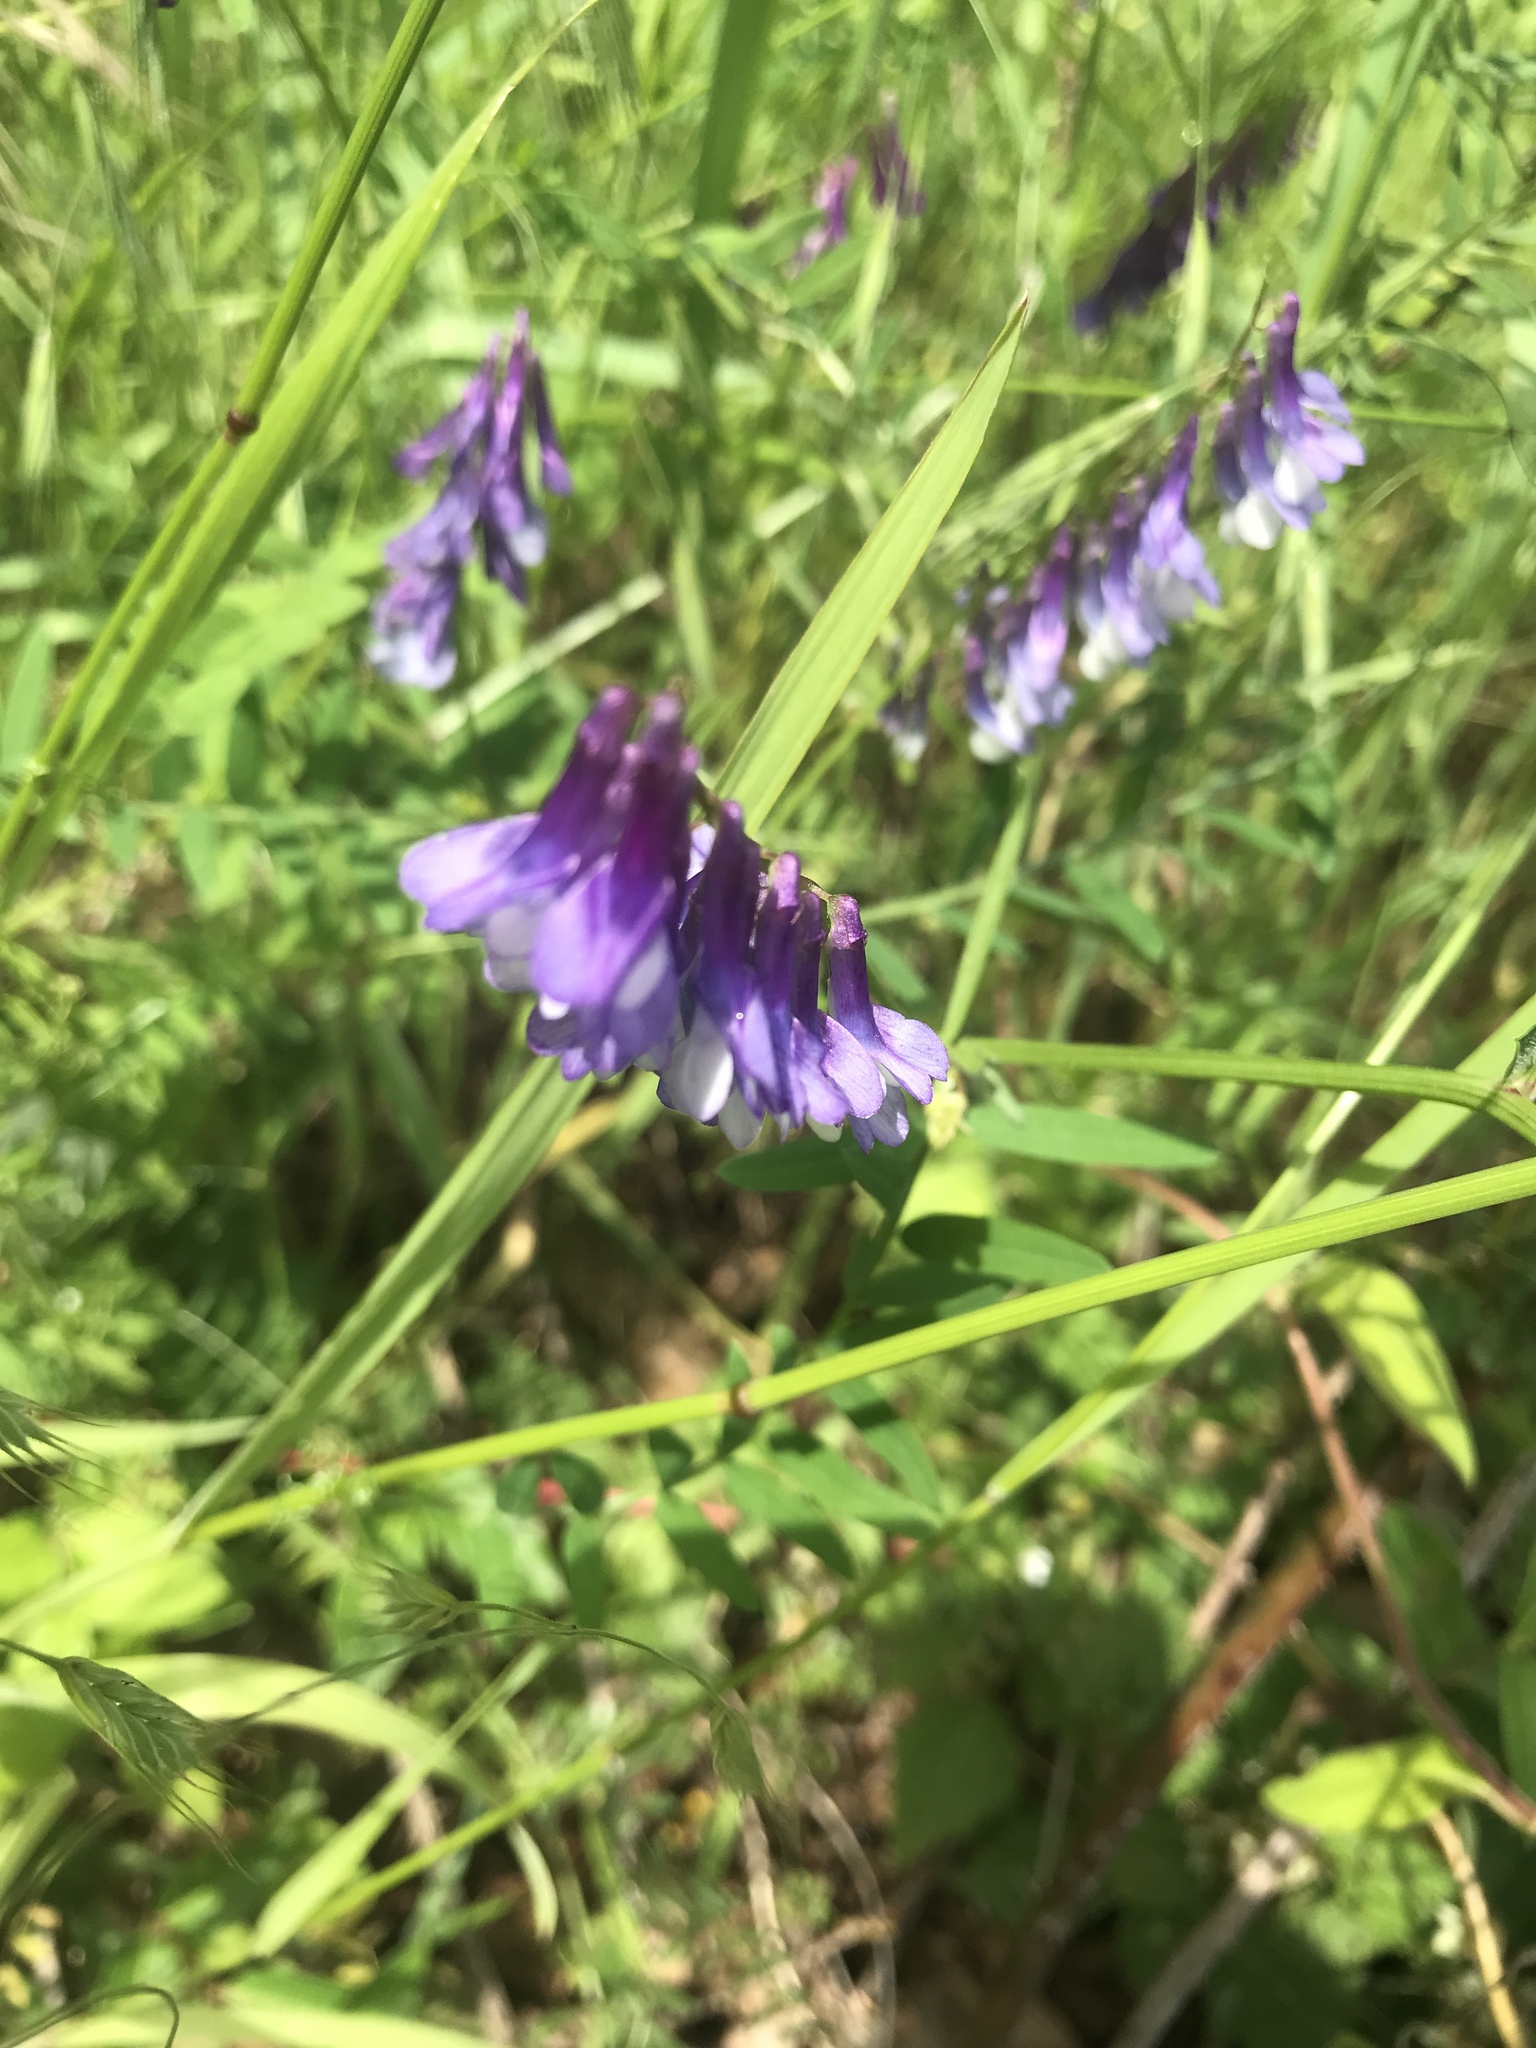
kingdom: Plantae
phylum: Tracheophyta
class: Magnoliopsida
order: Fabales
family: Fabaceae
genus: Vicia
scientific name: Vicia villosa
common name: Fodder vetch
